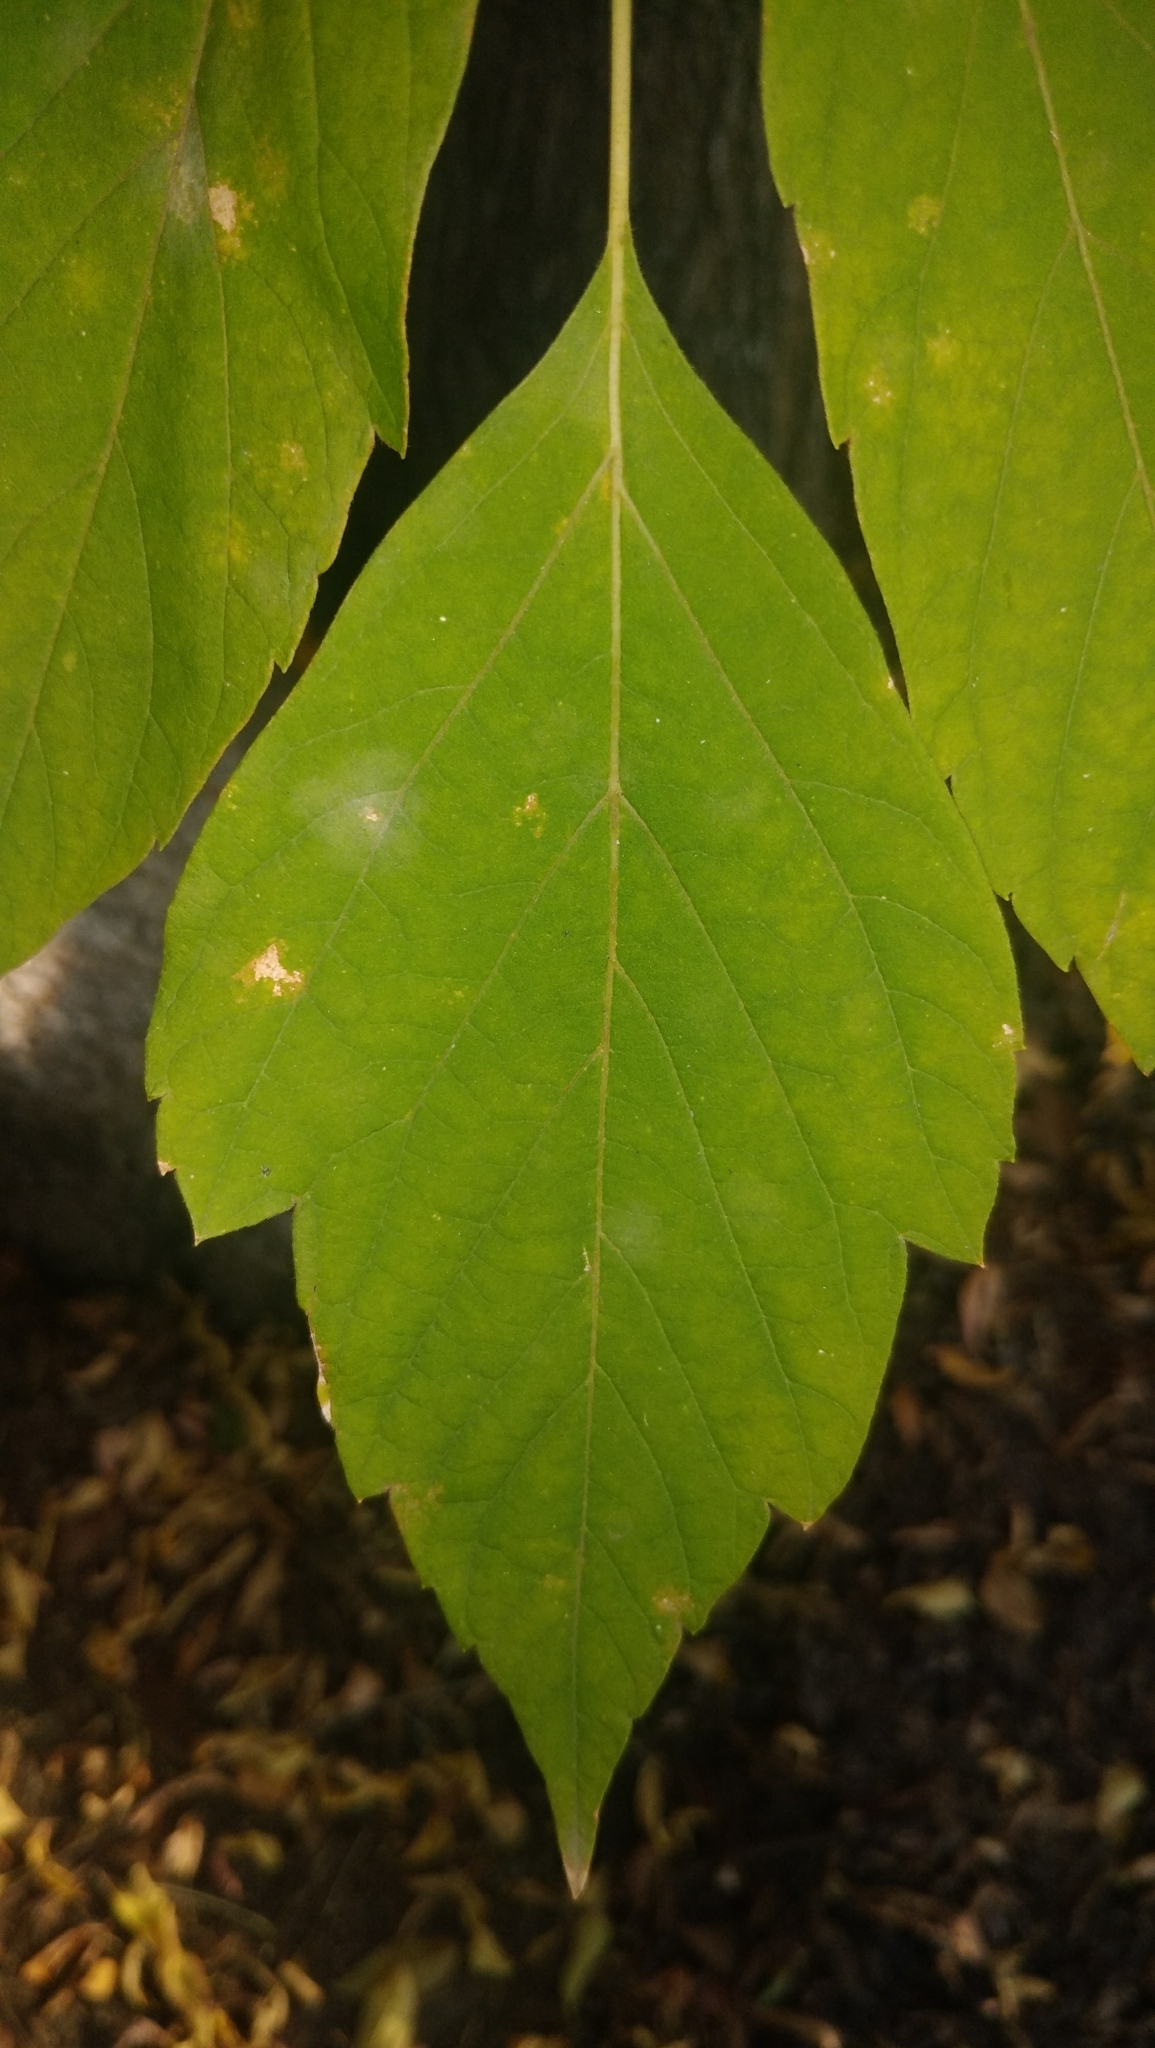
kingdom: Plantae
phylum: Tracheophyta
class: Magnoliopsida
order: Sapindales
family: Sapindaceae
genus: Acer
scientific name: Acer negundo
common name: Ashleaf maple
